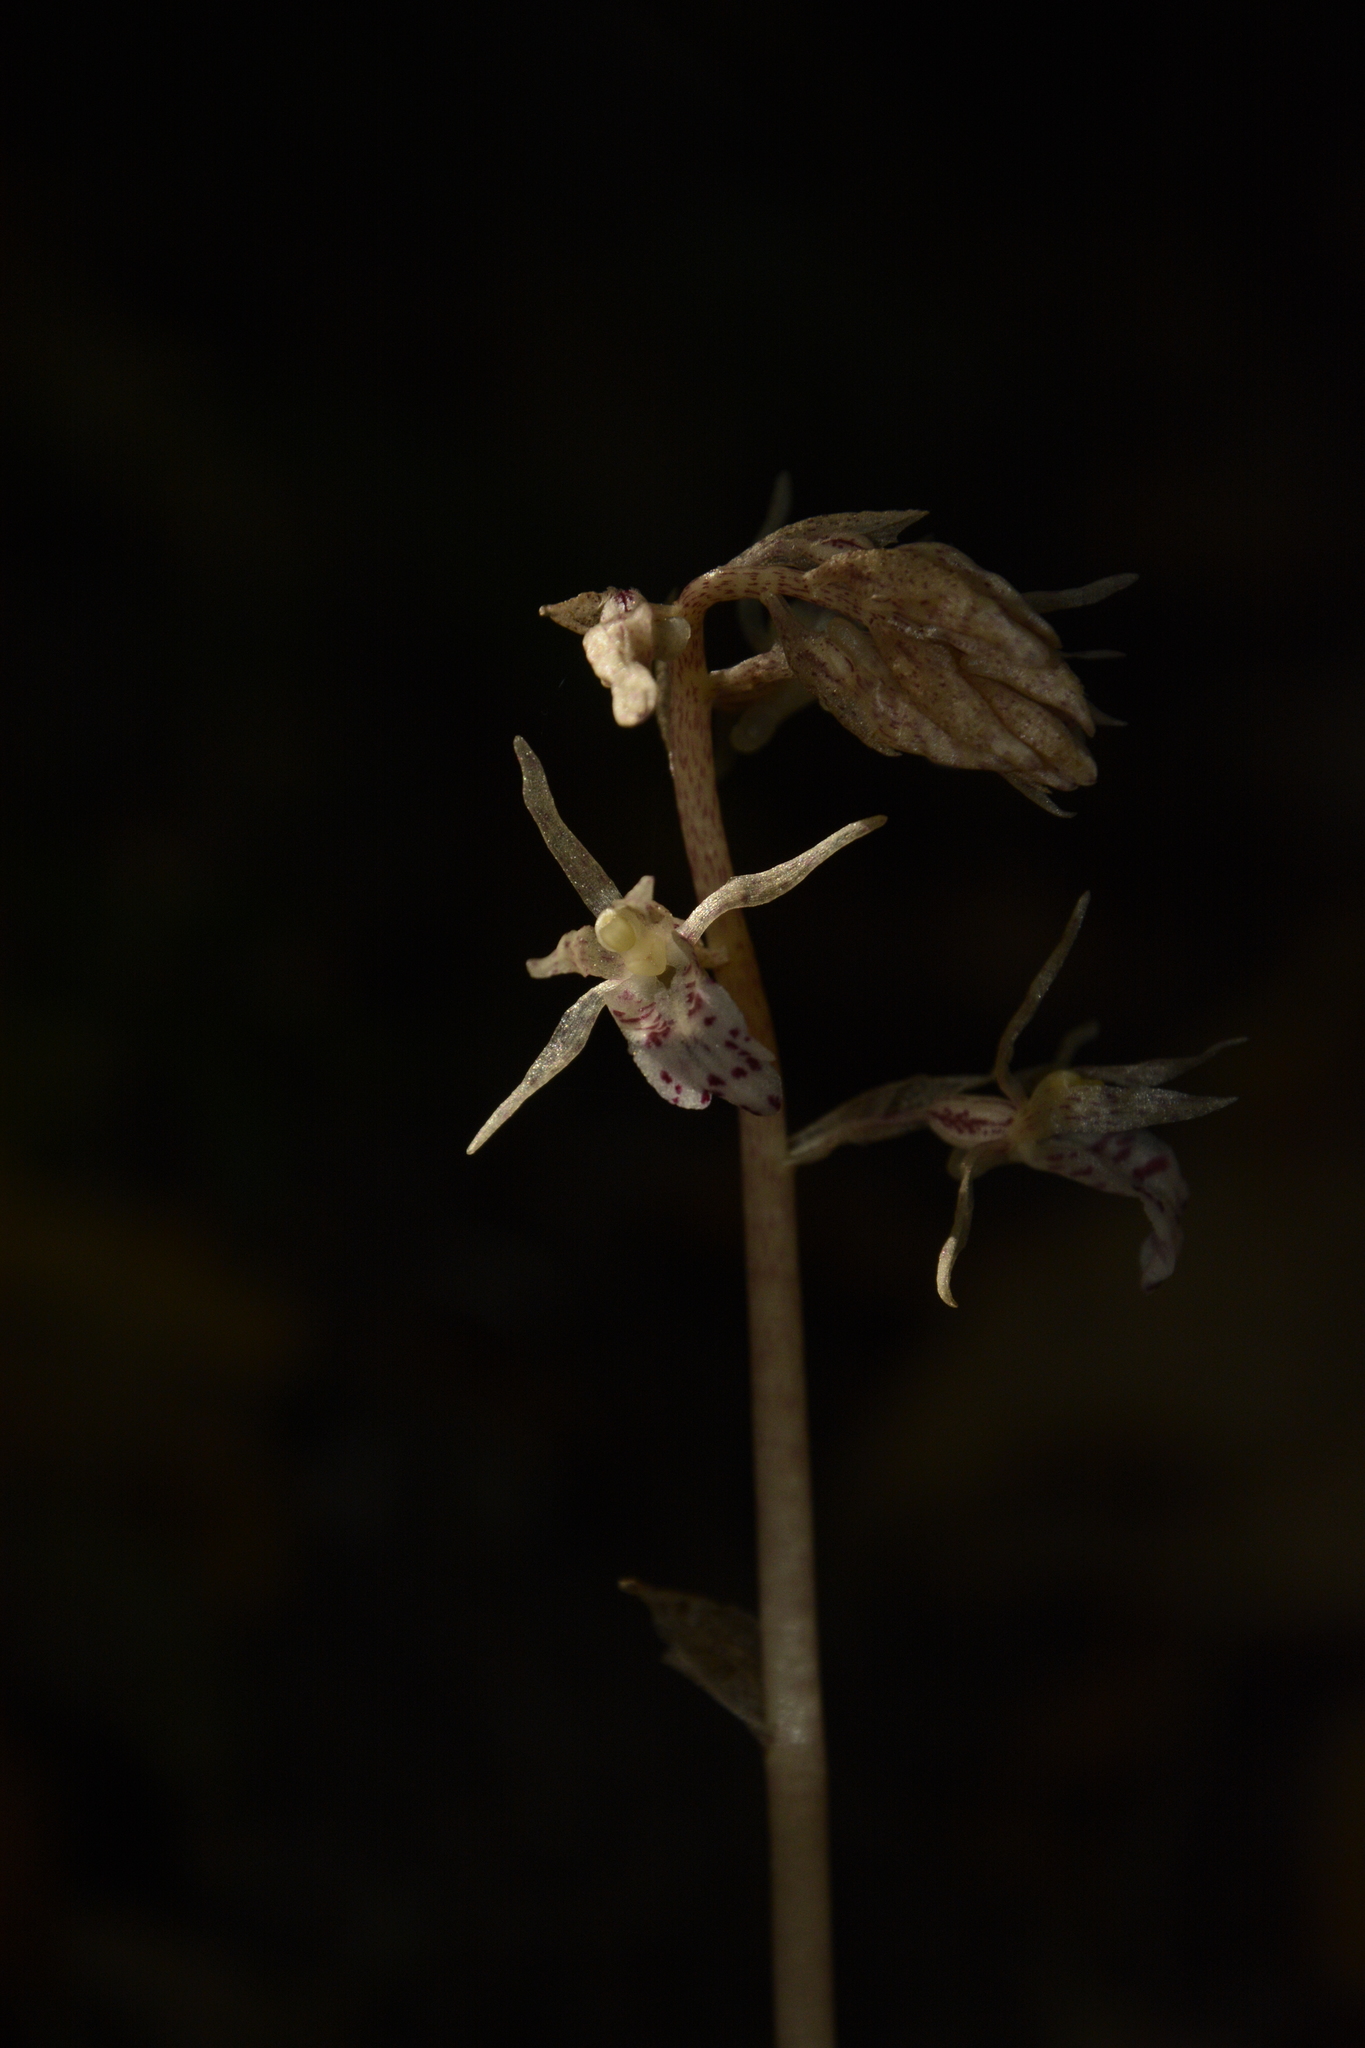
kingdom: Plantae
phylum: Tracheophyta
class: Liliopsida
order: Asparagales
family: Orchidaceae
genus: Epipogium
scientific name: Epipogium roseum
